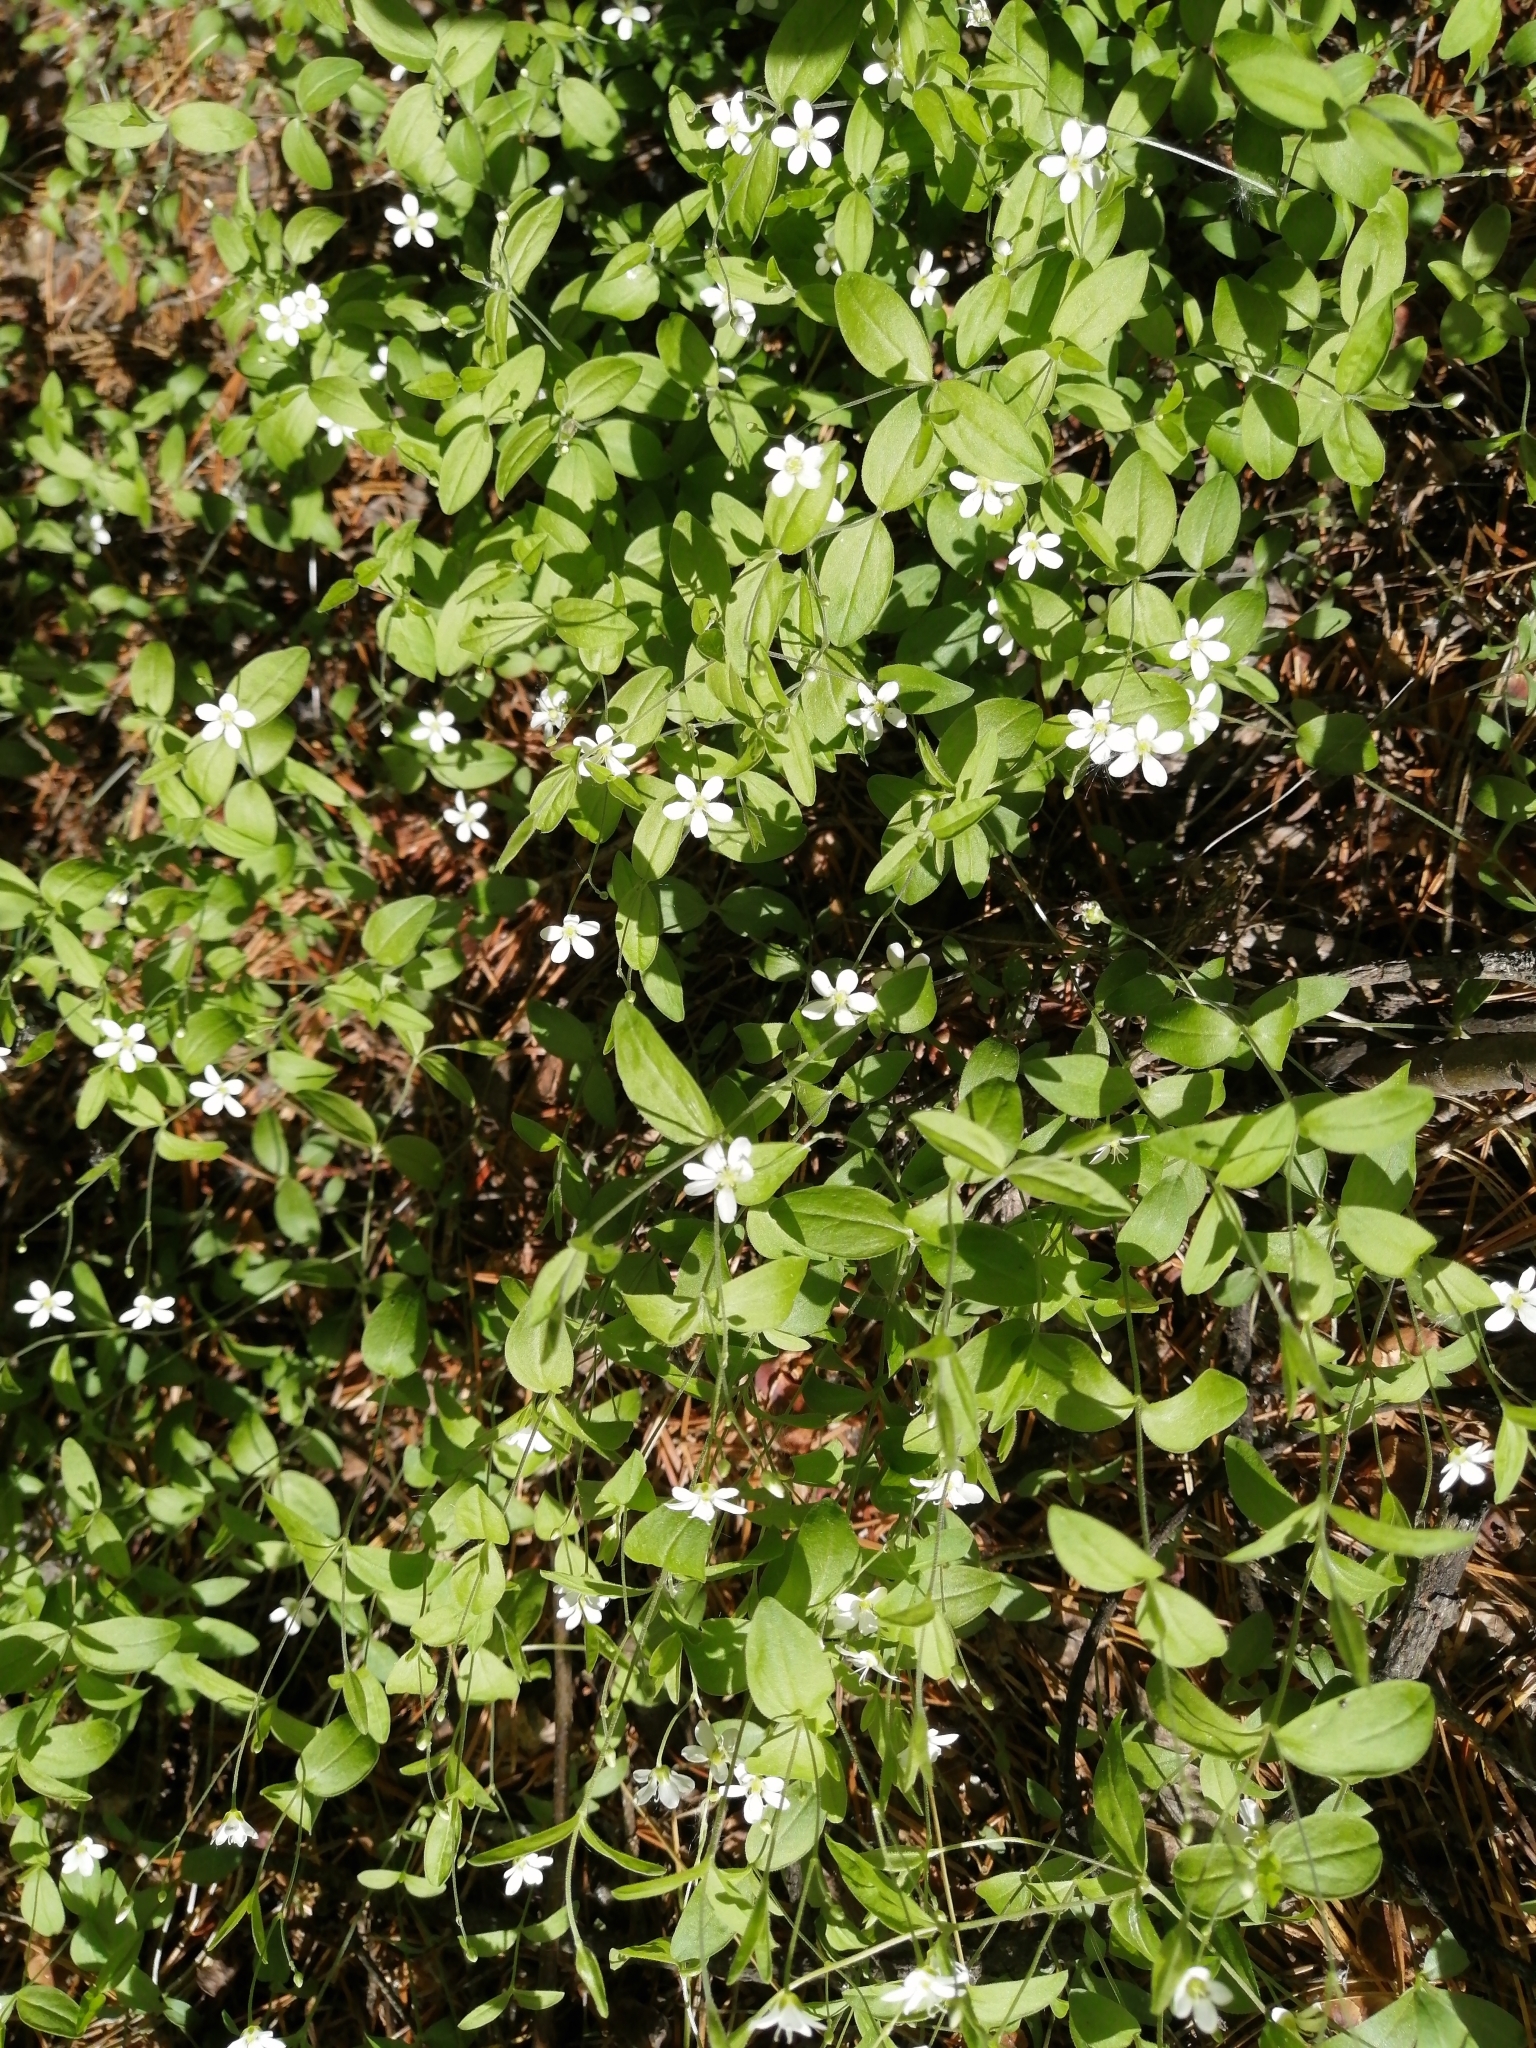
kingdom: Plantae
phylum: Tracheophyta
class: Magnoliopsida
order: Caryophyllales
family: Caryophyllaceae
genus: Moehringia
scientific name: Moehringia lateriflora
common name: Blunt-leaved sandwort
